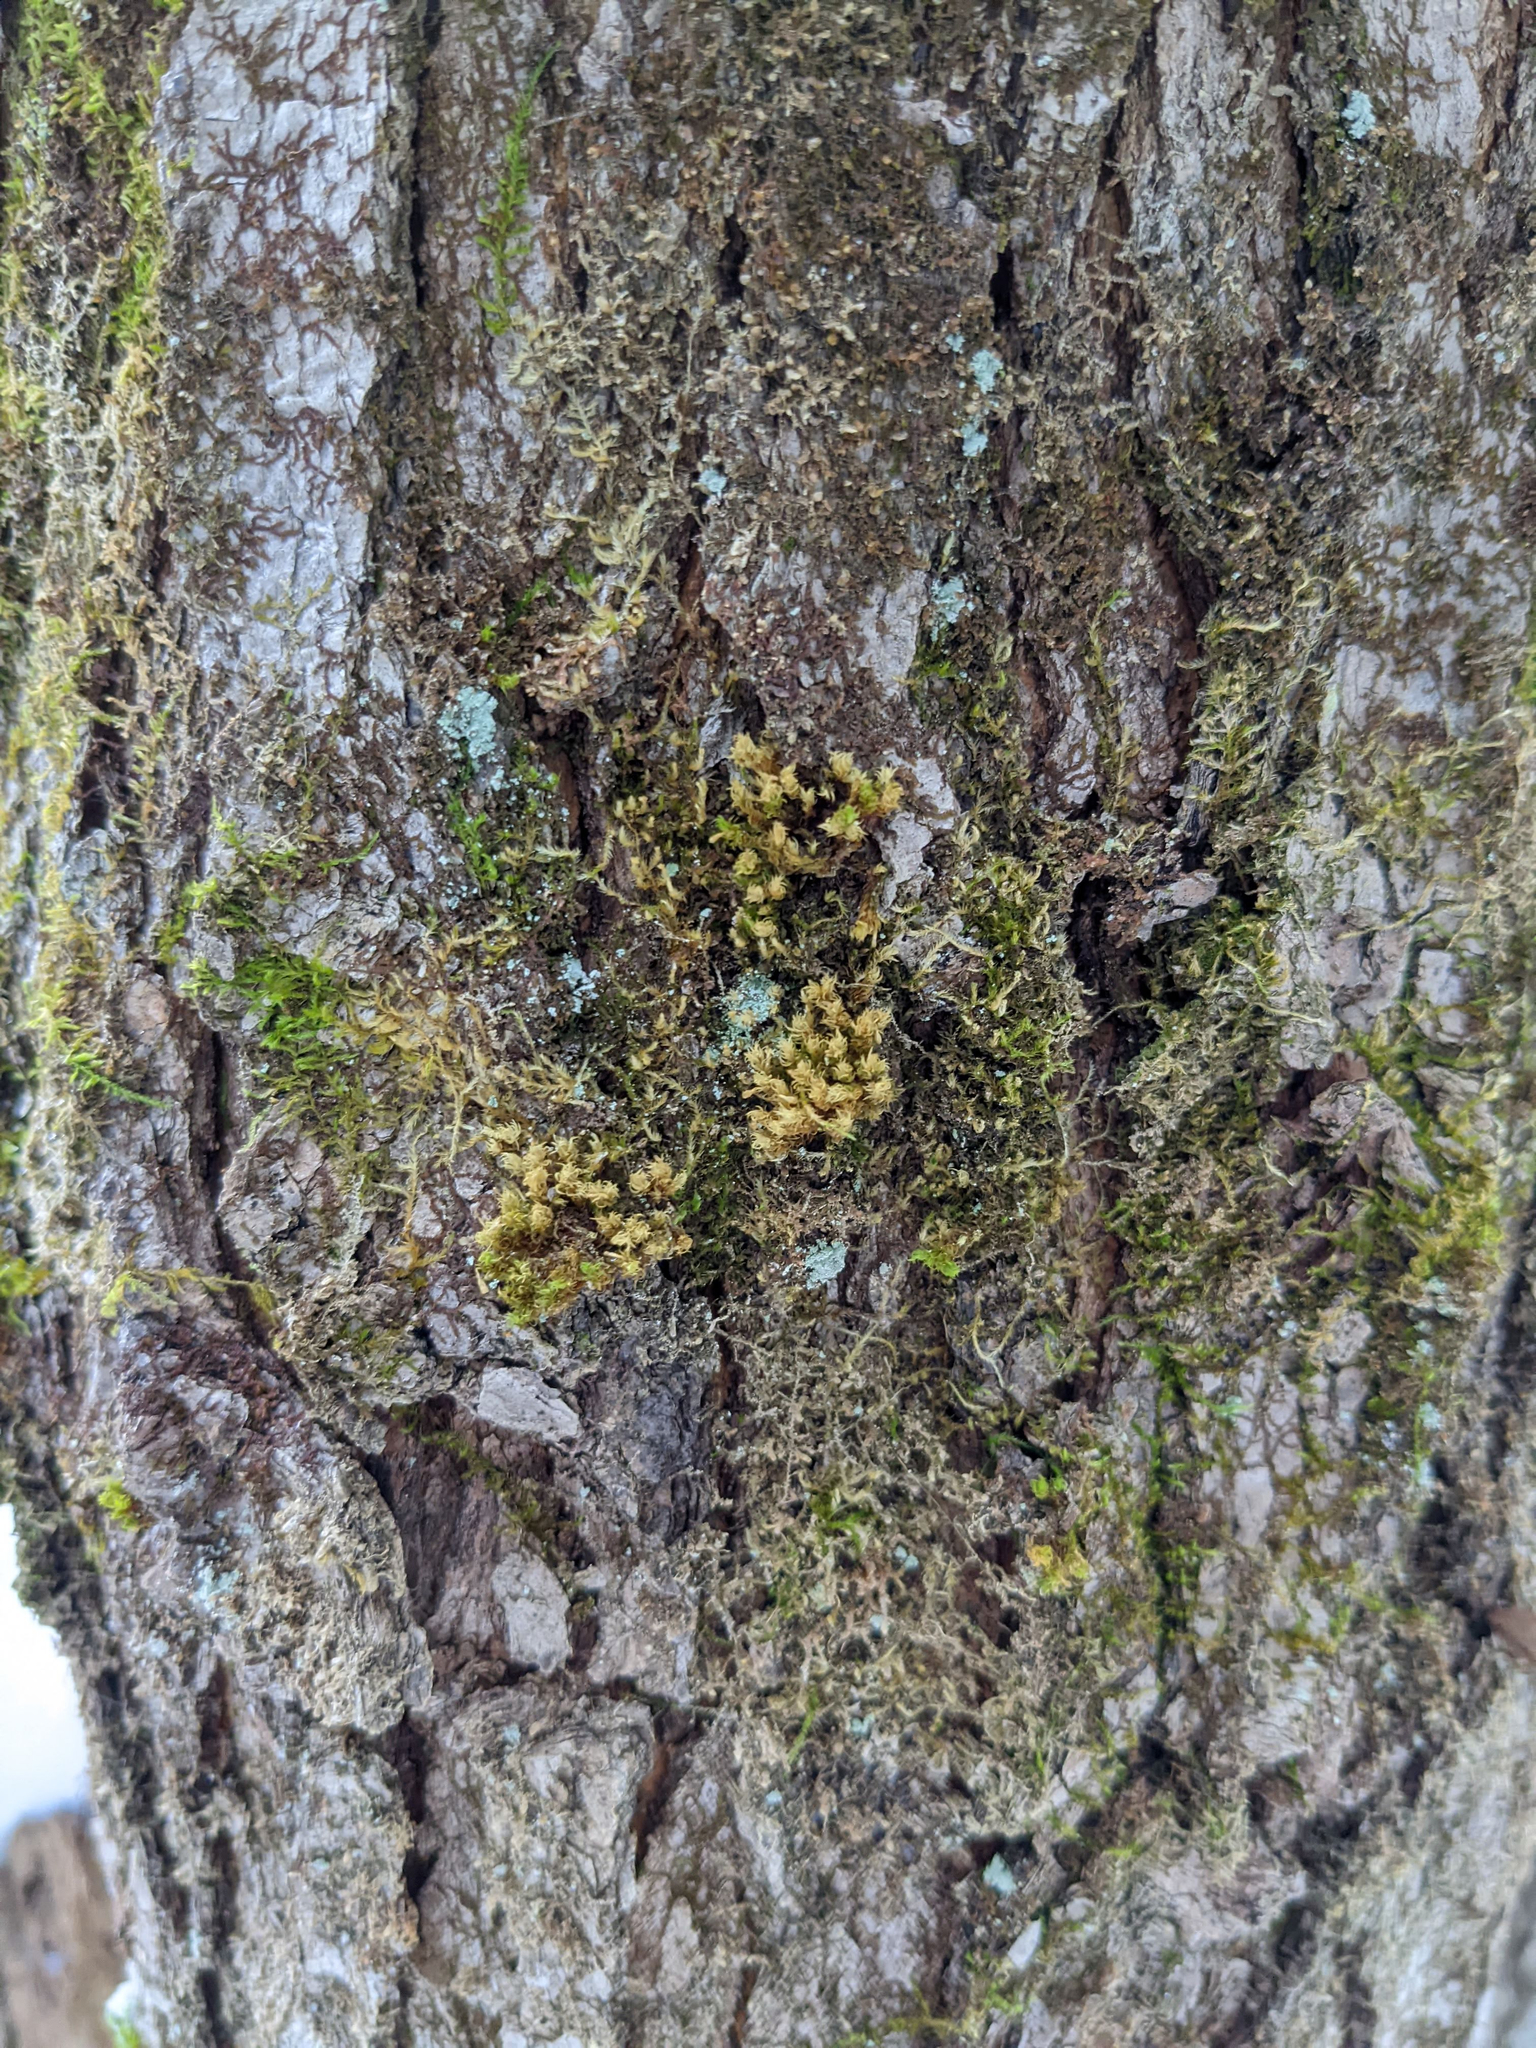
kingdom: Plantae
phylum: Bryophyta
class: Bryopsida
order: Orthotrichales
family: Orthotrichaceae
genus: Ulota
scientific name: Ulota crispa
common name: Crisped pincushion moss
